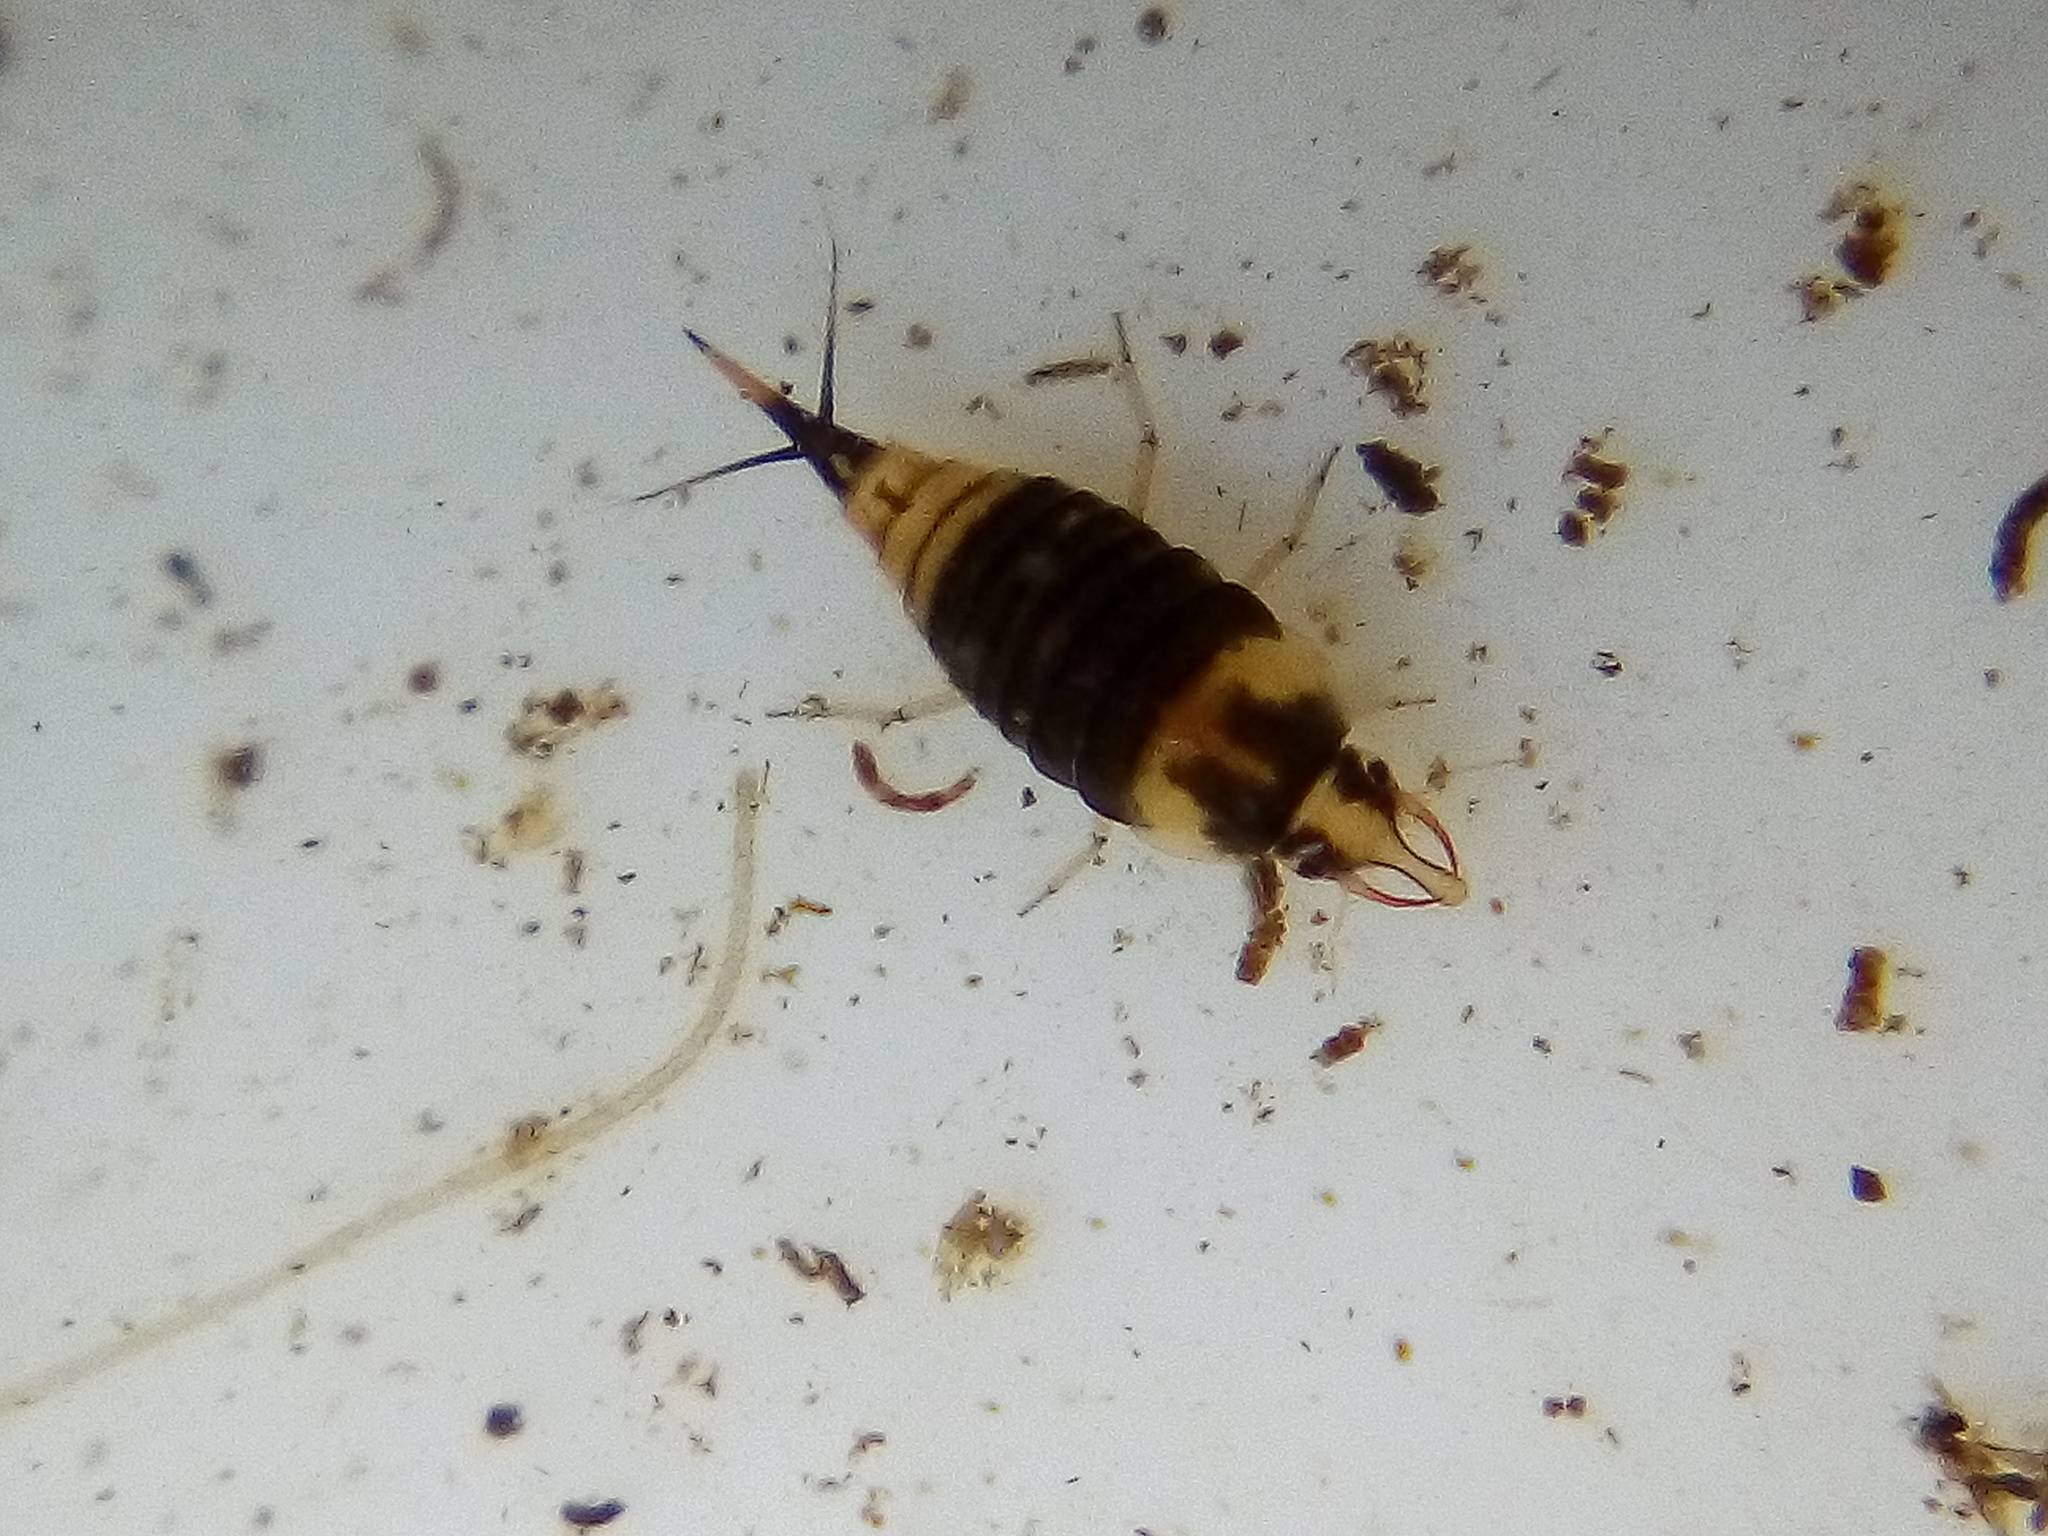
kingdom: Animalia
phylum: Arthropoda
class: Insecta
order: Coleoptera
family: Dytiscidae
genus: Hyphydrus
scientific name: Hyphydrus elegans
